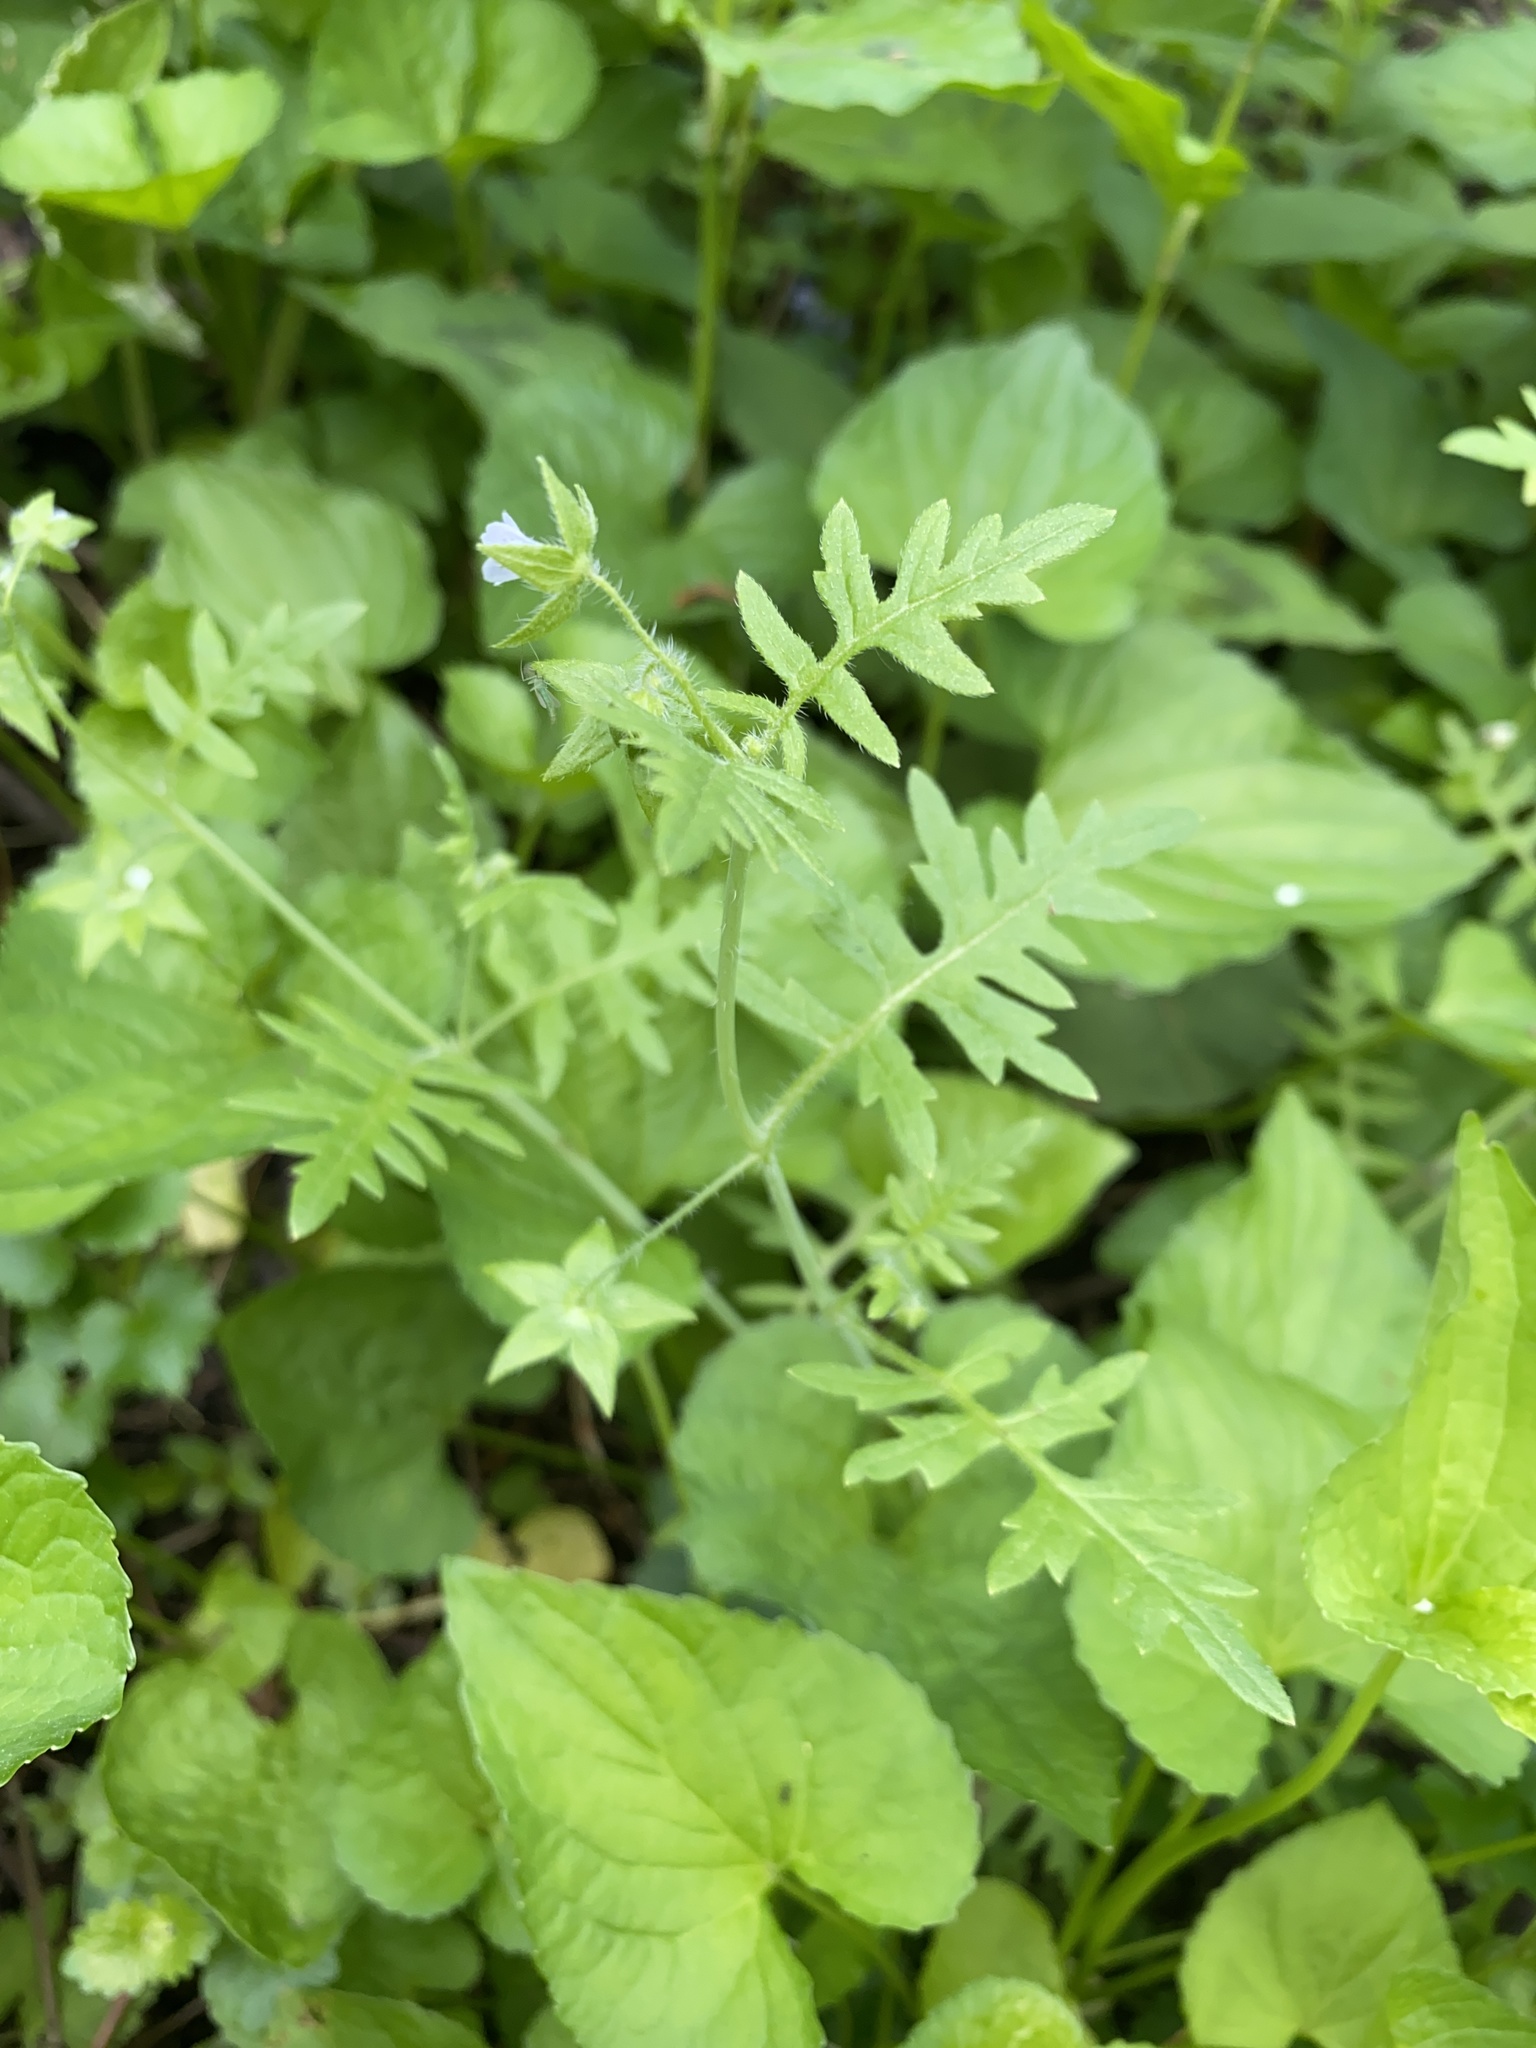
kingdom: Plantae
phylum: Tracheophyta
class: Magnoliopsida
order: Boraginales
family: Hydrophyllaceae
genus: Ellisia
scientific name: Ellisia nyctelea
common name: Aunt lucy
